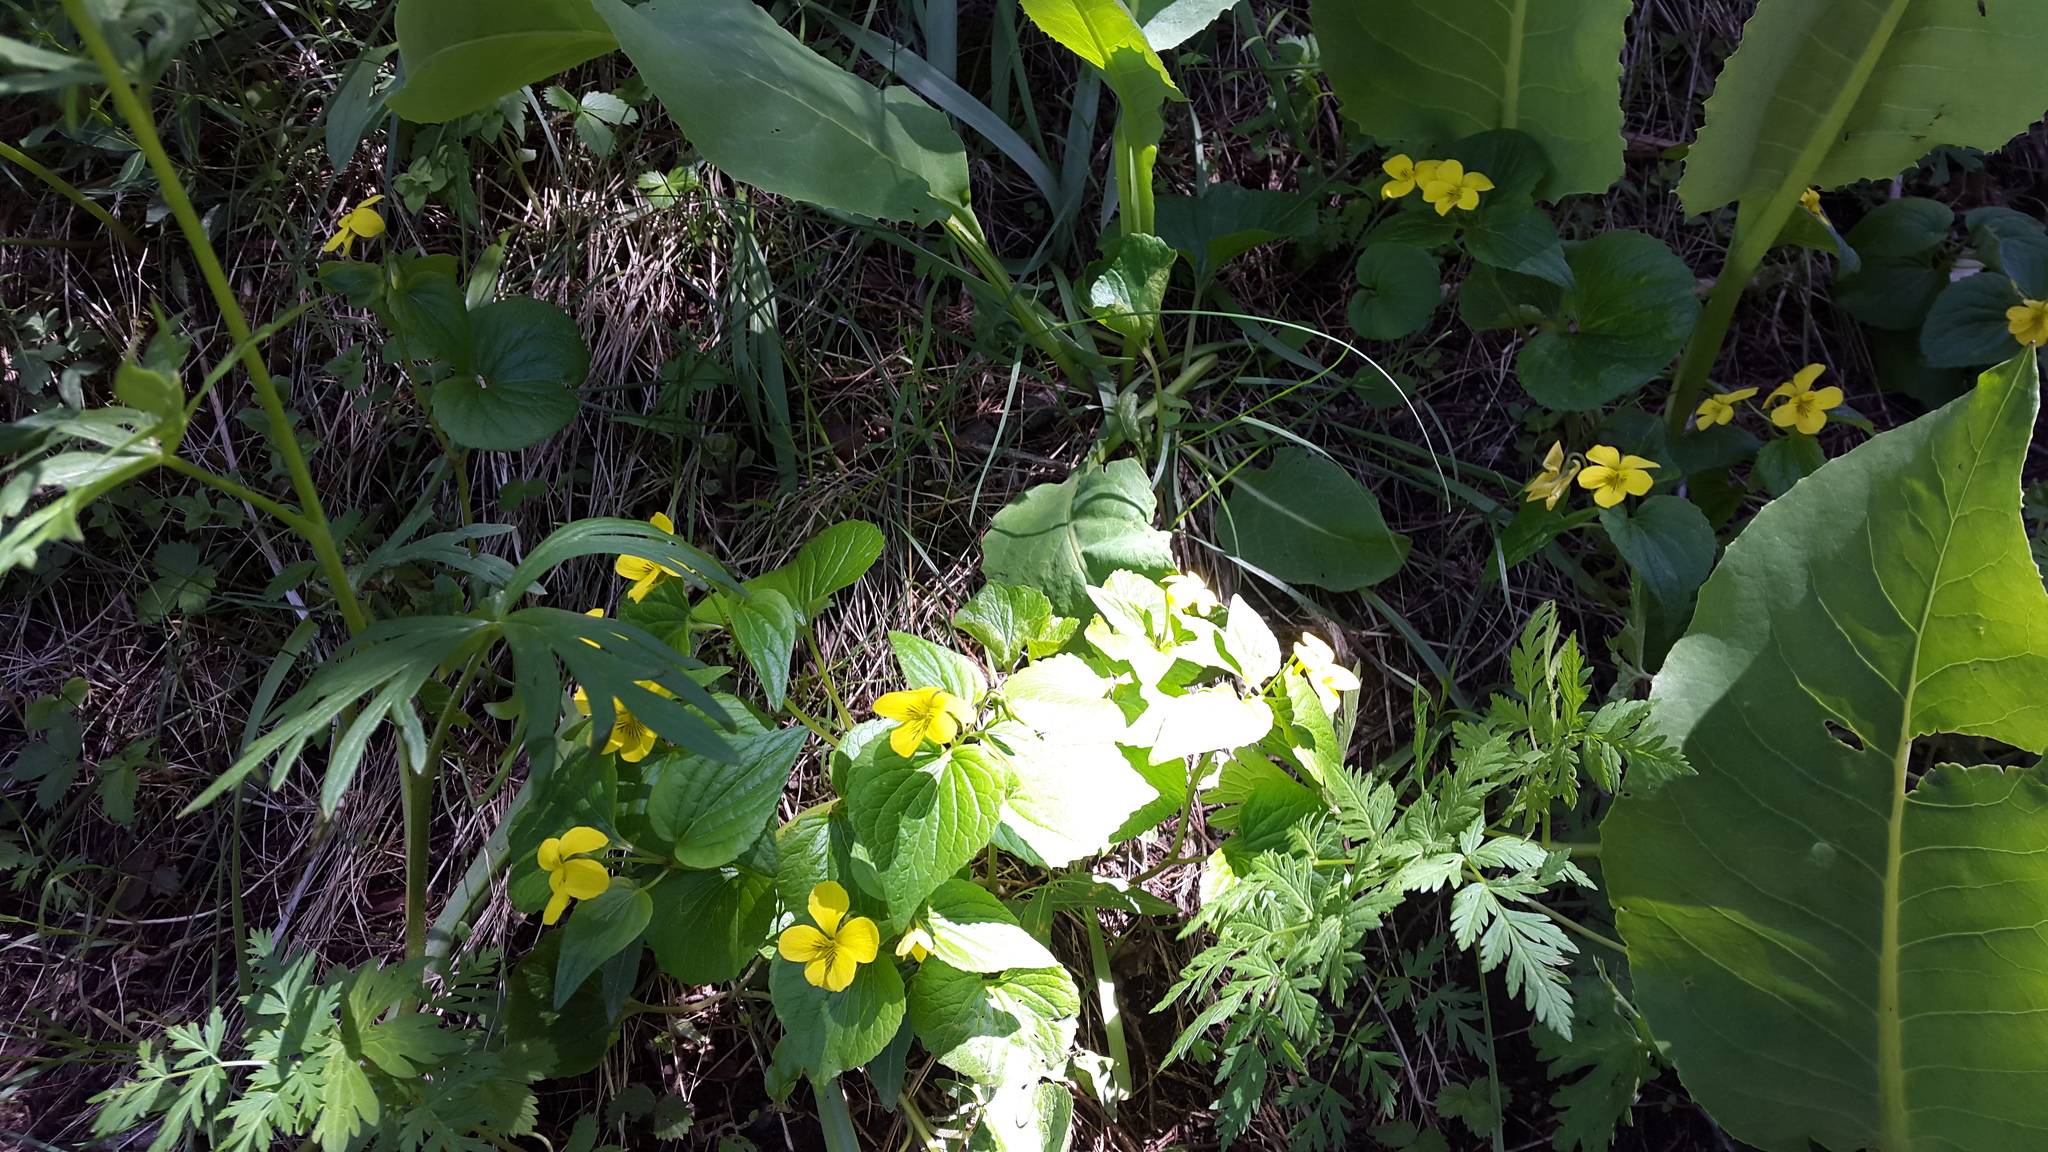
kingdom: Plantae
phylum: Tracheophyta
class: Magnoliopsida
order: Malpighiales
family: Violaceae
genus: Viola
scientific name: Viola acutifolia
